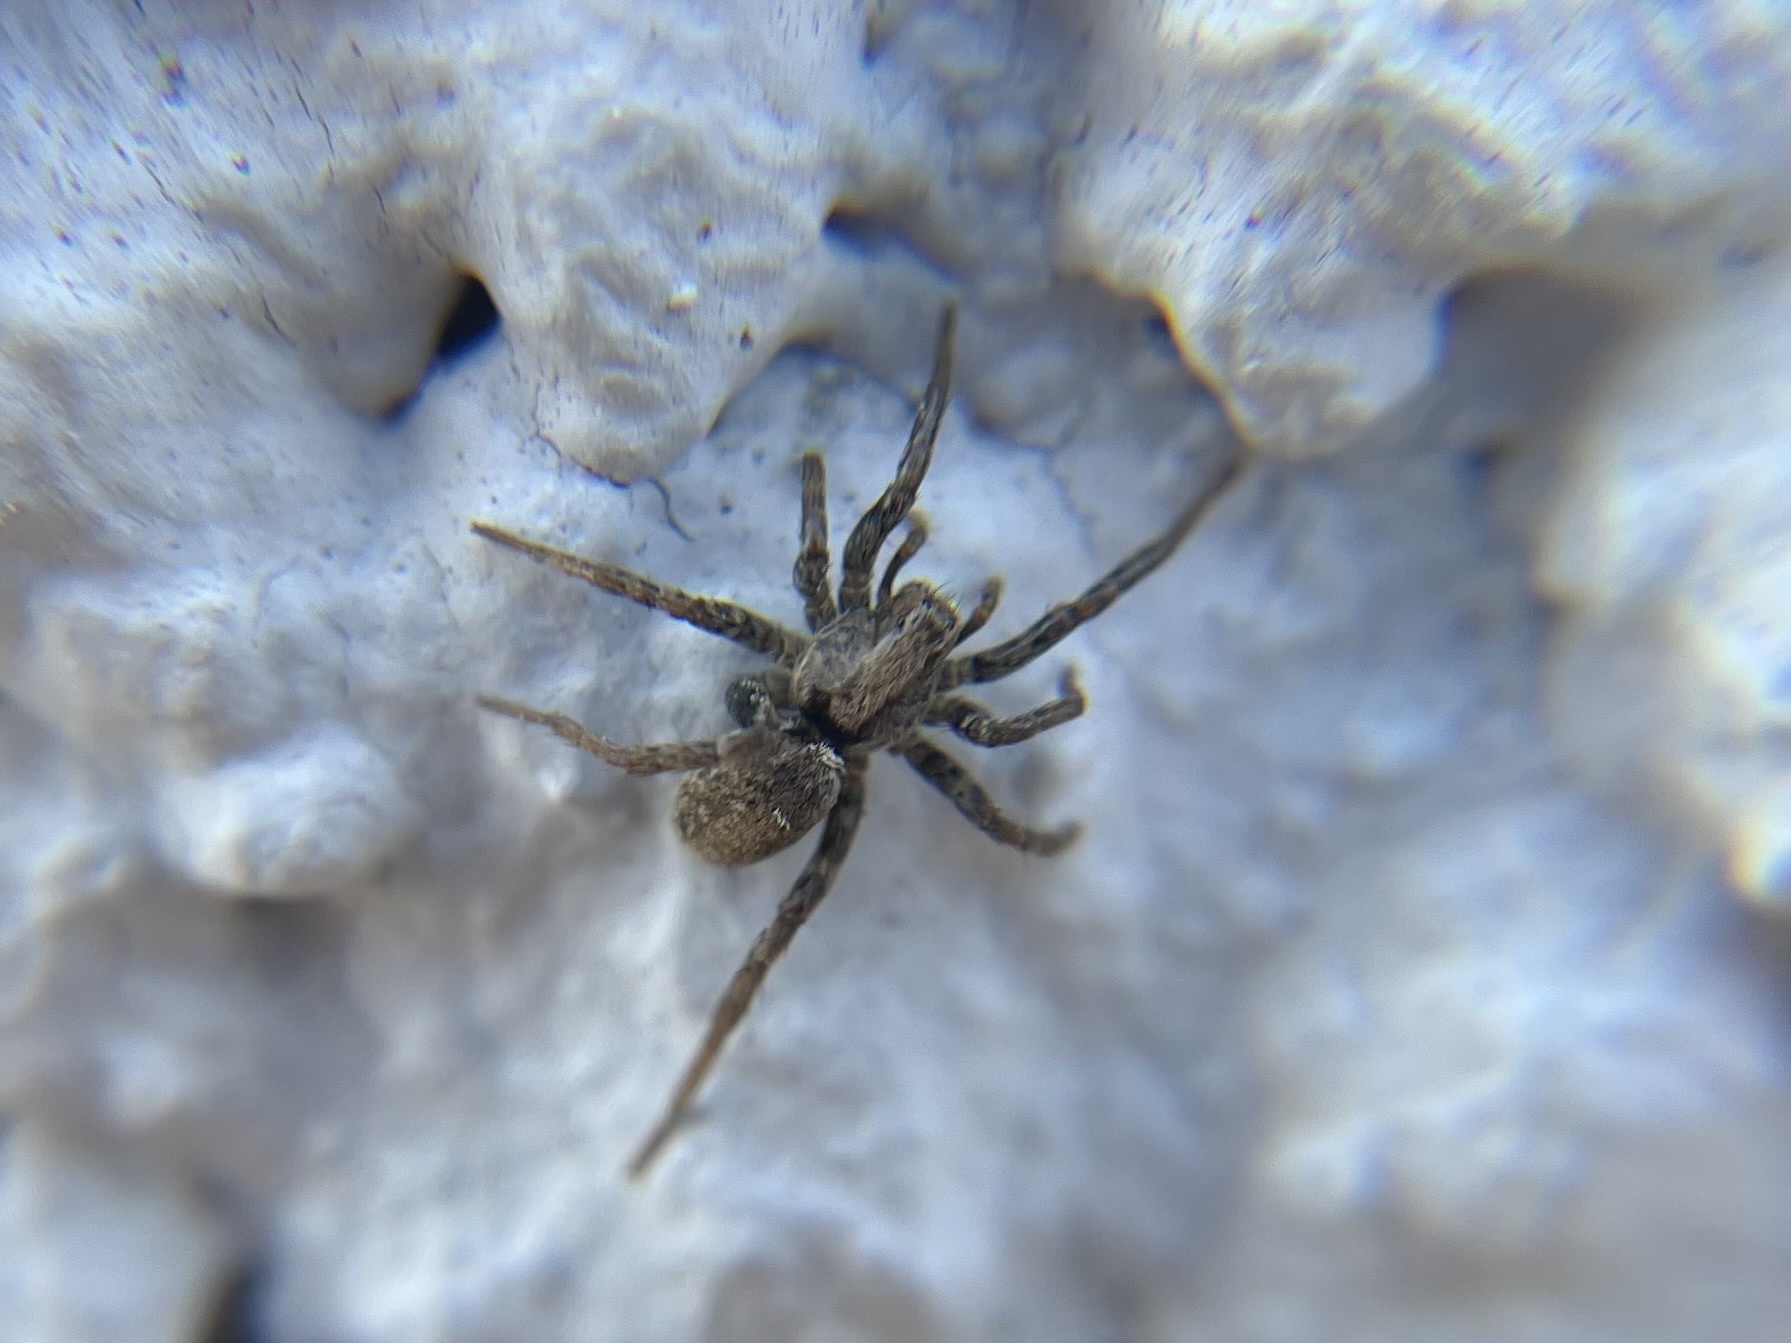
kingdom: Animalia
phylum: Arthropoda
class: Arachnida
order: Araneae
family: Lycosidae
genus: Xerolycosa
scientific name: Xerolycosa miniata
